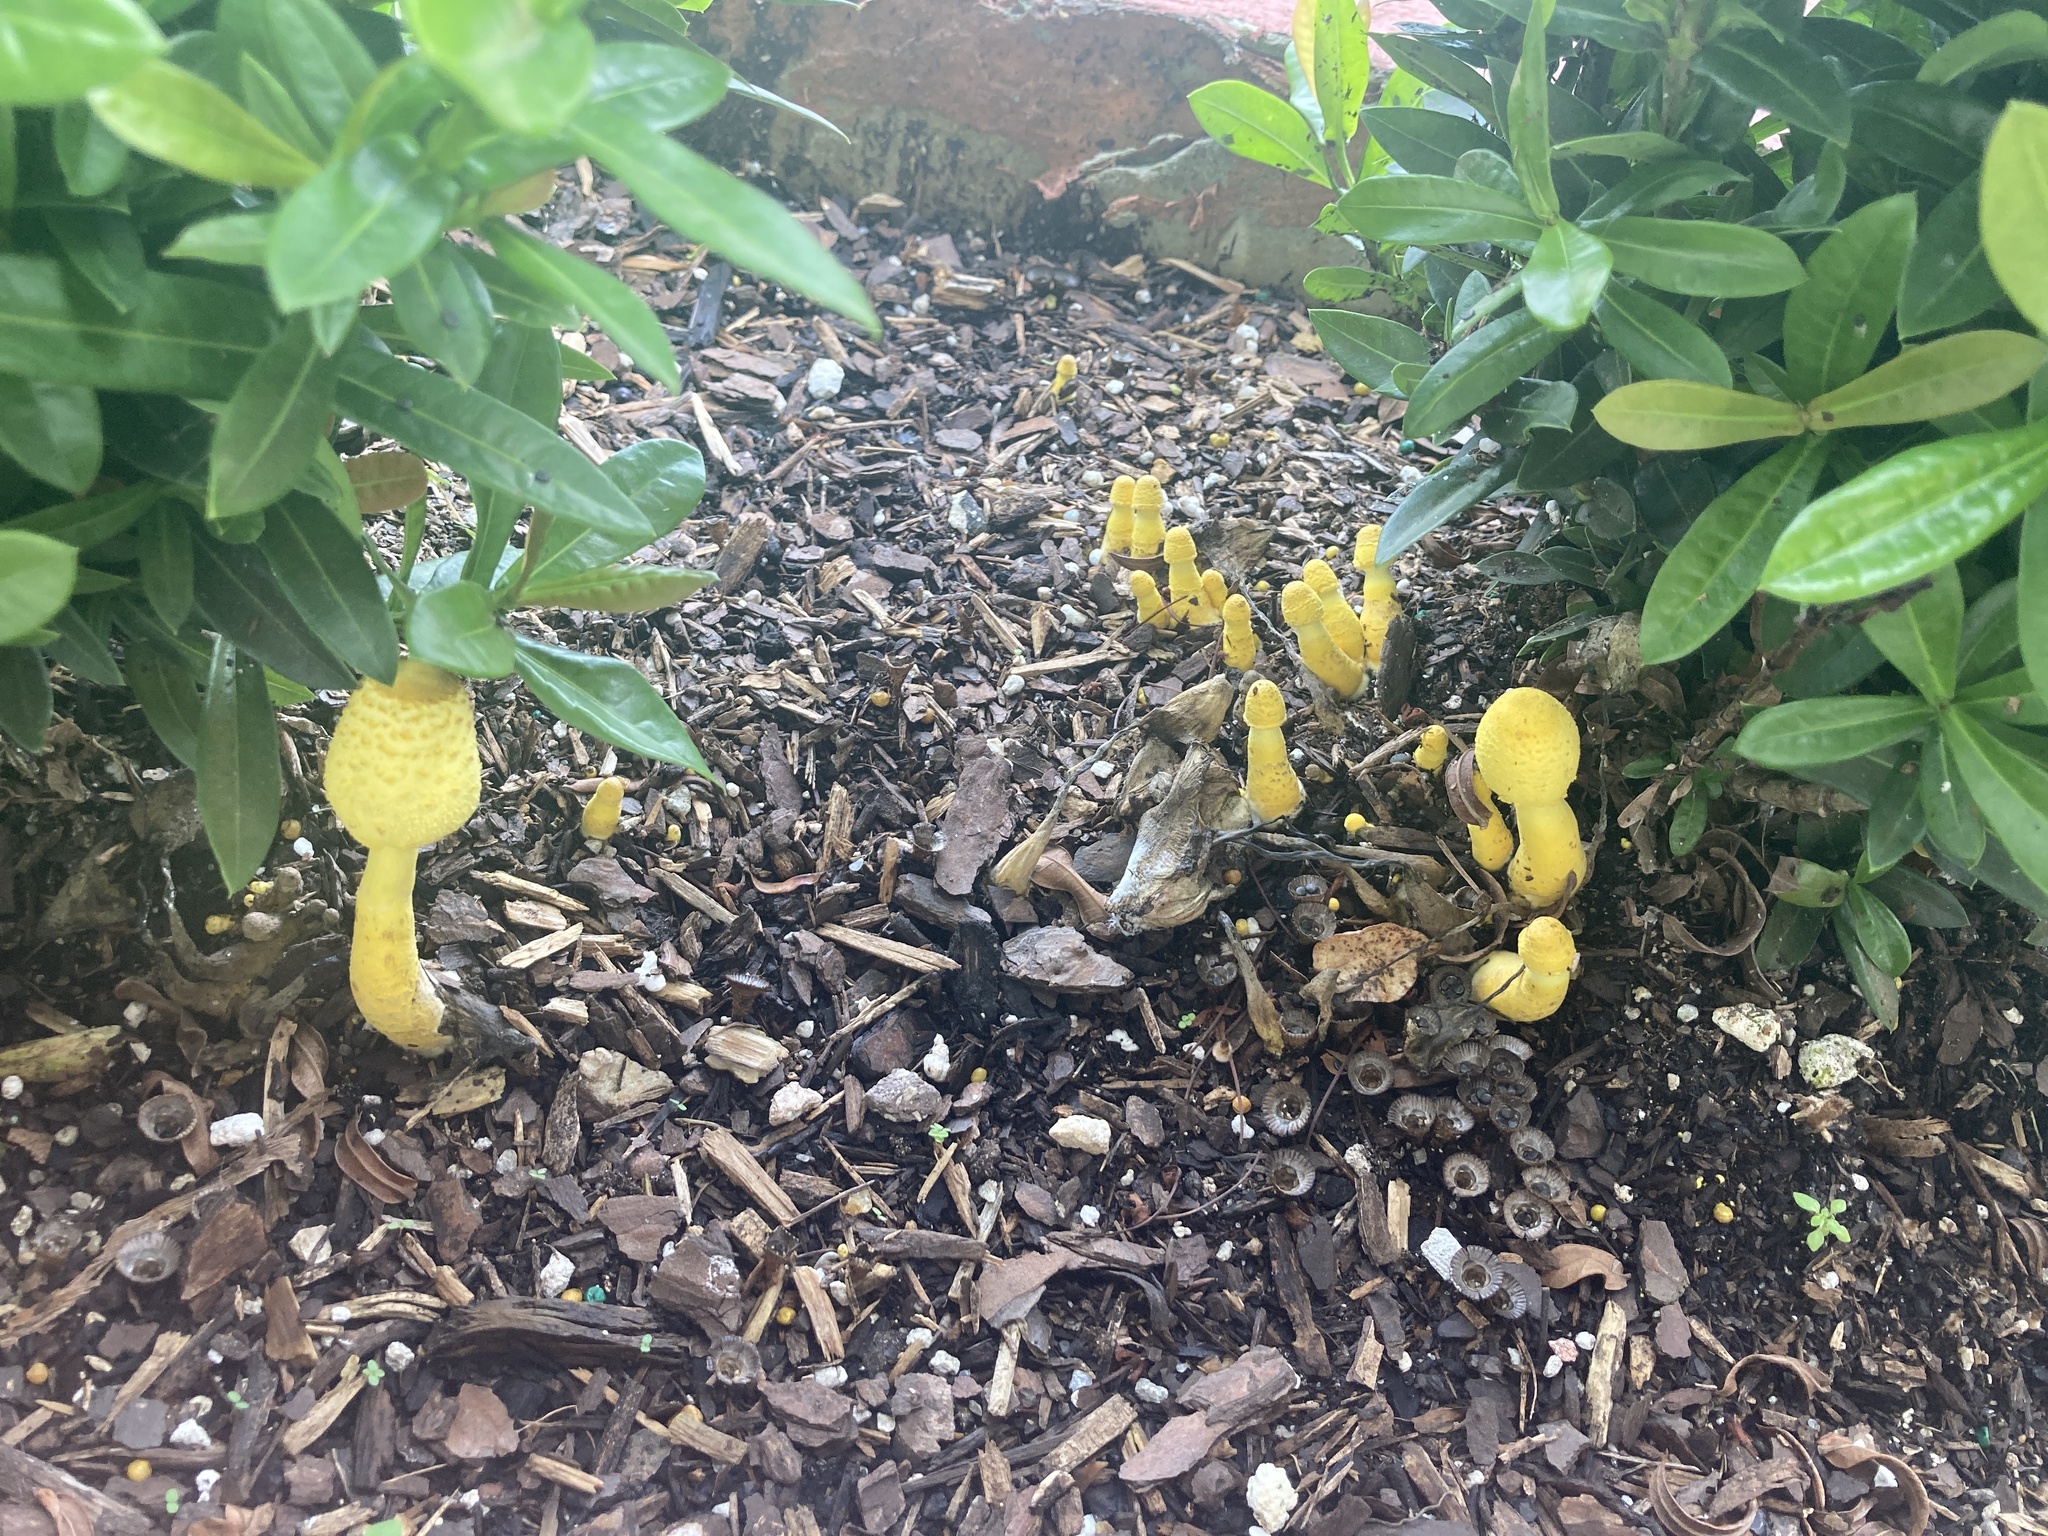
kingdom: Fungi
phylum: Basidiomycota
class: Agaricomycetes
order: Agaricales
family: Agaricaceae
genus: Leucocoprinus
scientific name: Leucocoprinus birnbaumii
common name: Plantpot dapperling
